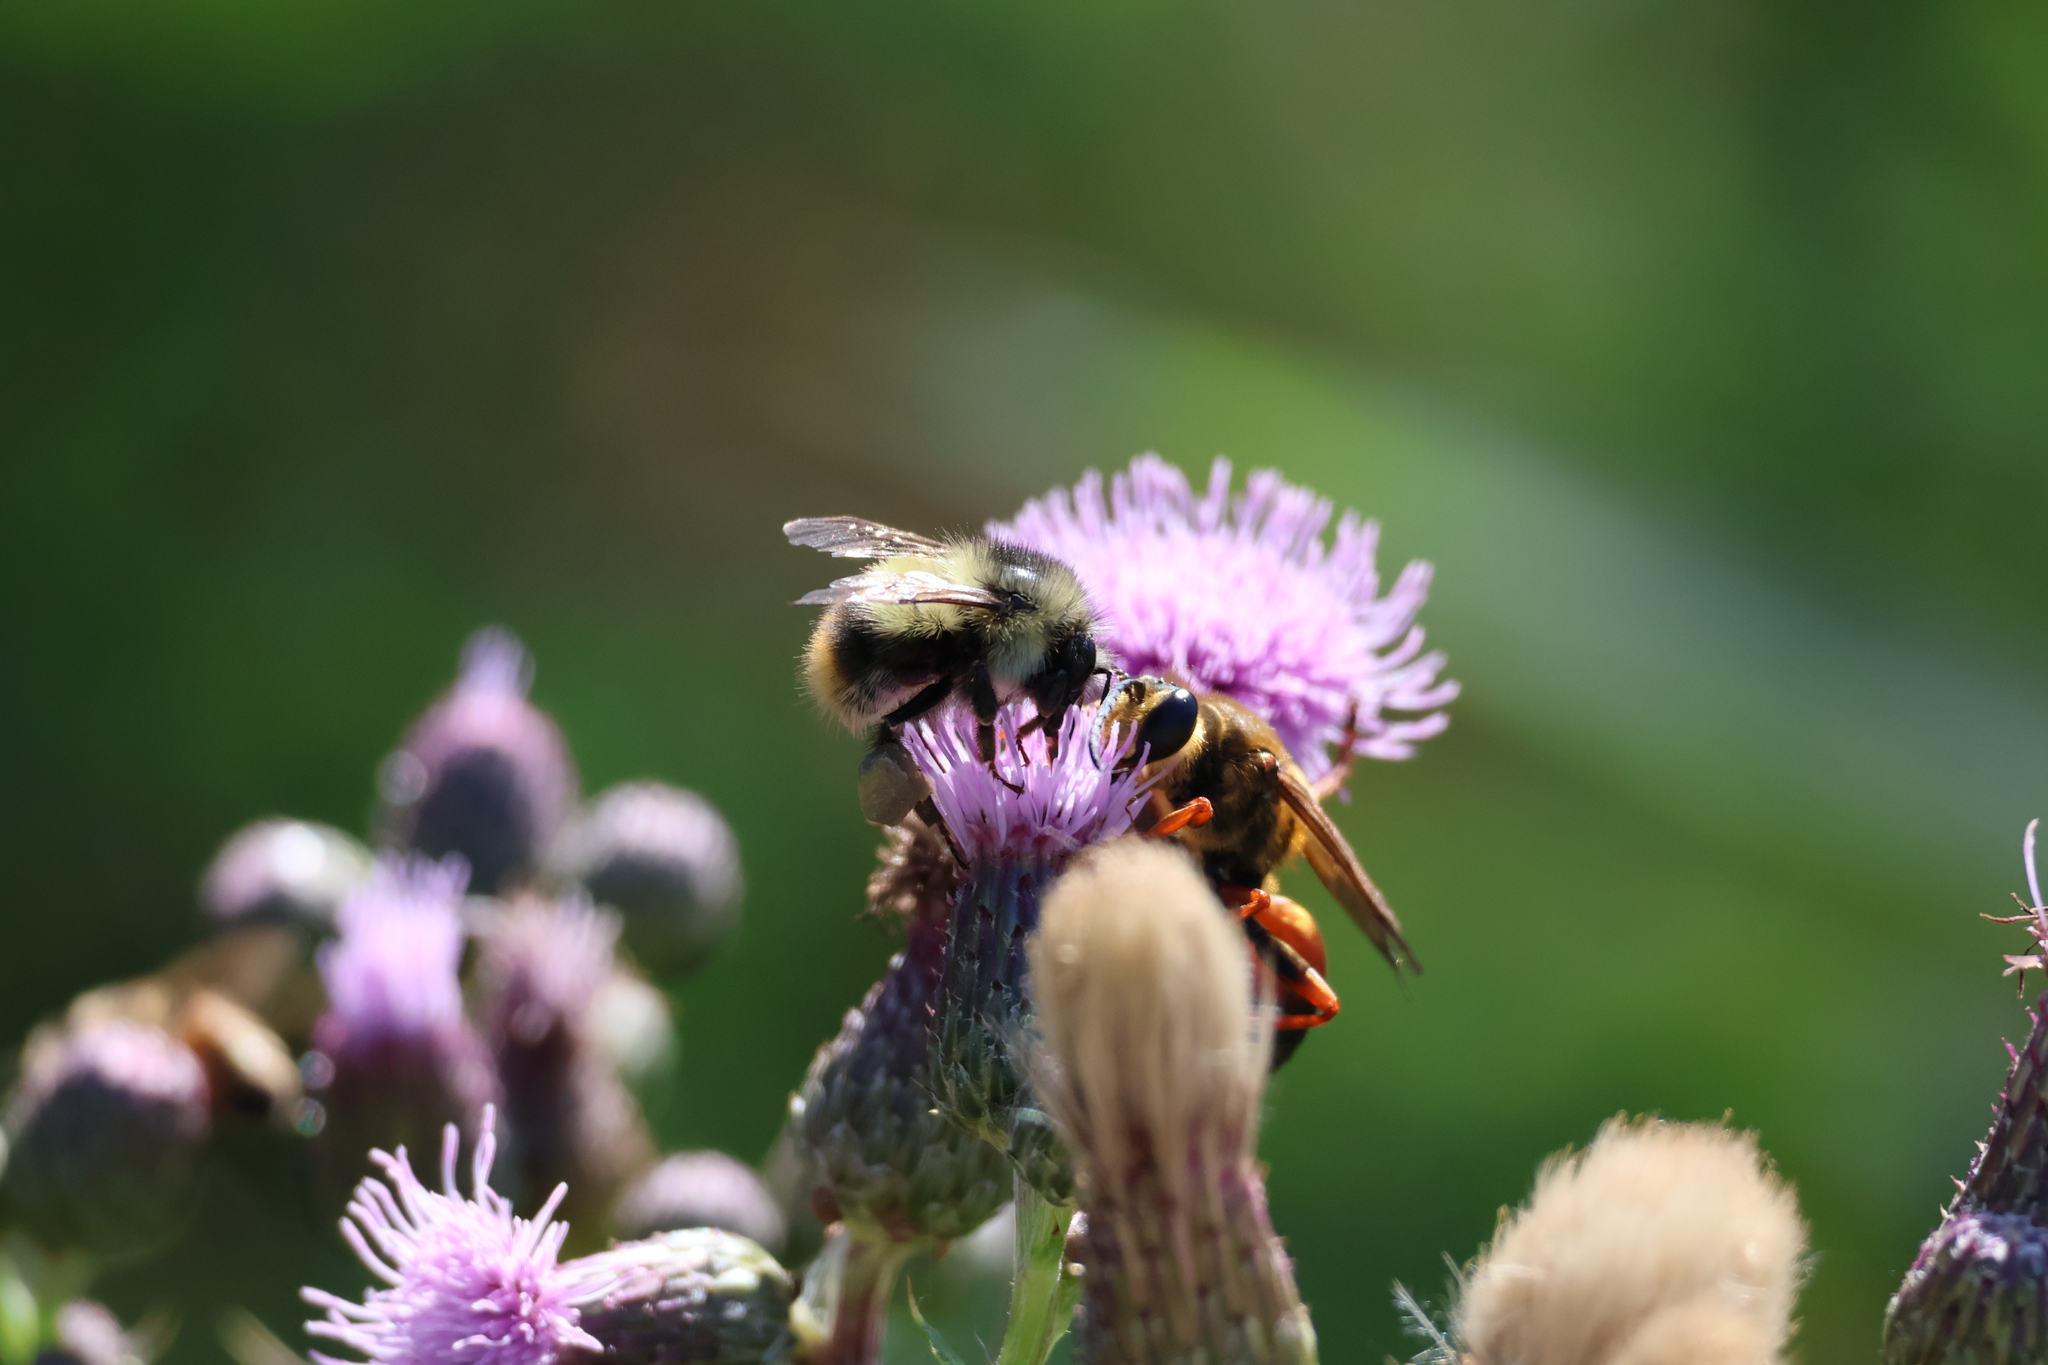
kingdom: Animalia
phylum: Arthropoda
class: Insecta
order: Hymenoptera
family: Sphecidae
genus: Sphex
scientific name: Sphex ichneumoneus
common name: Great golden digger wasp
